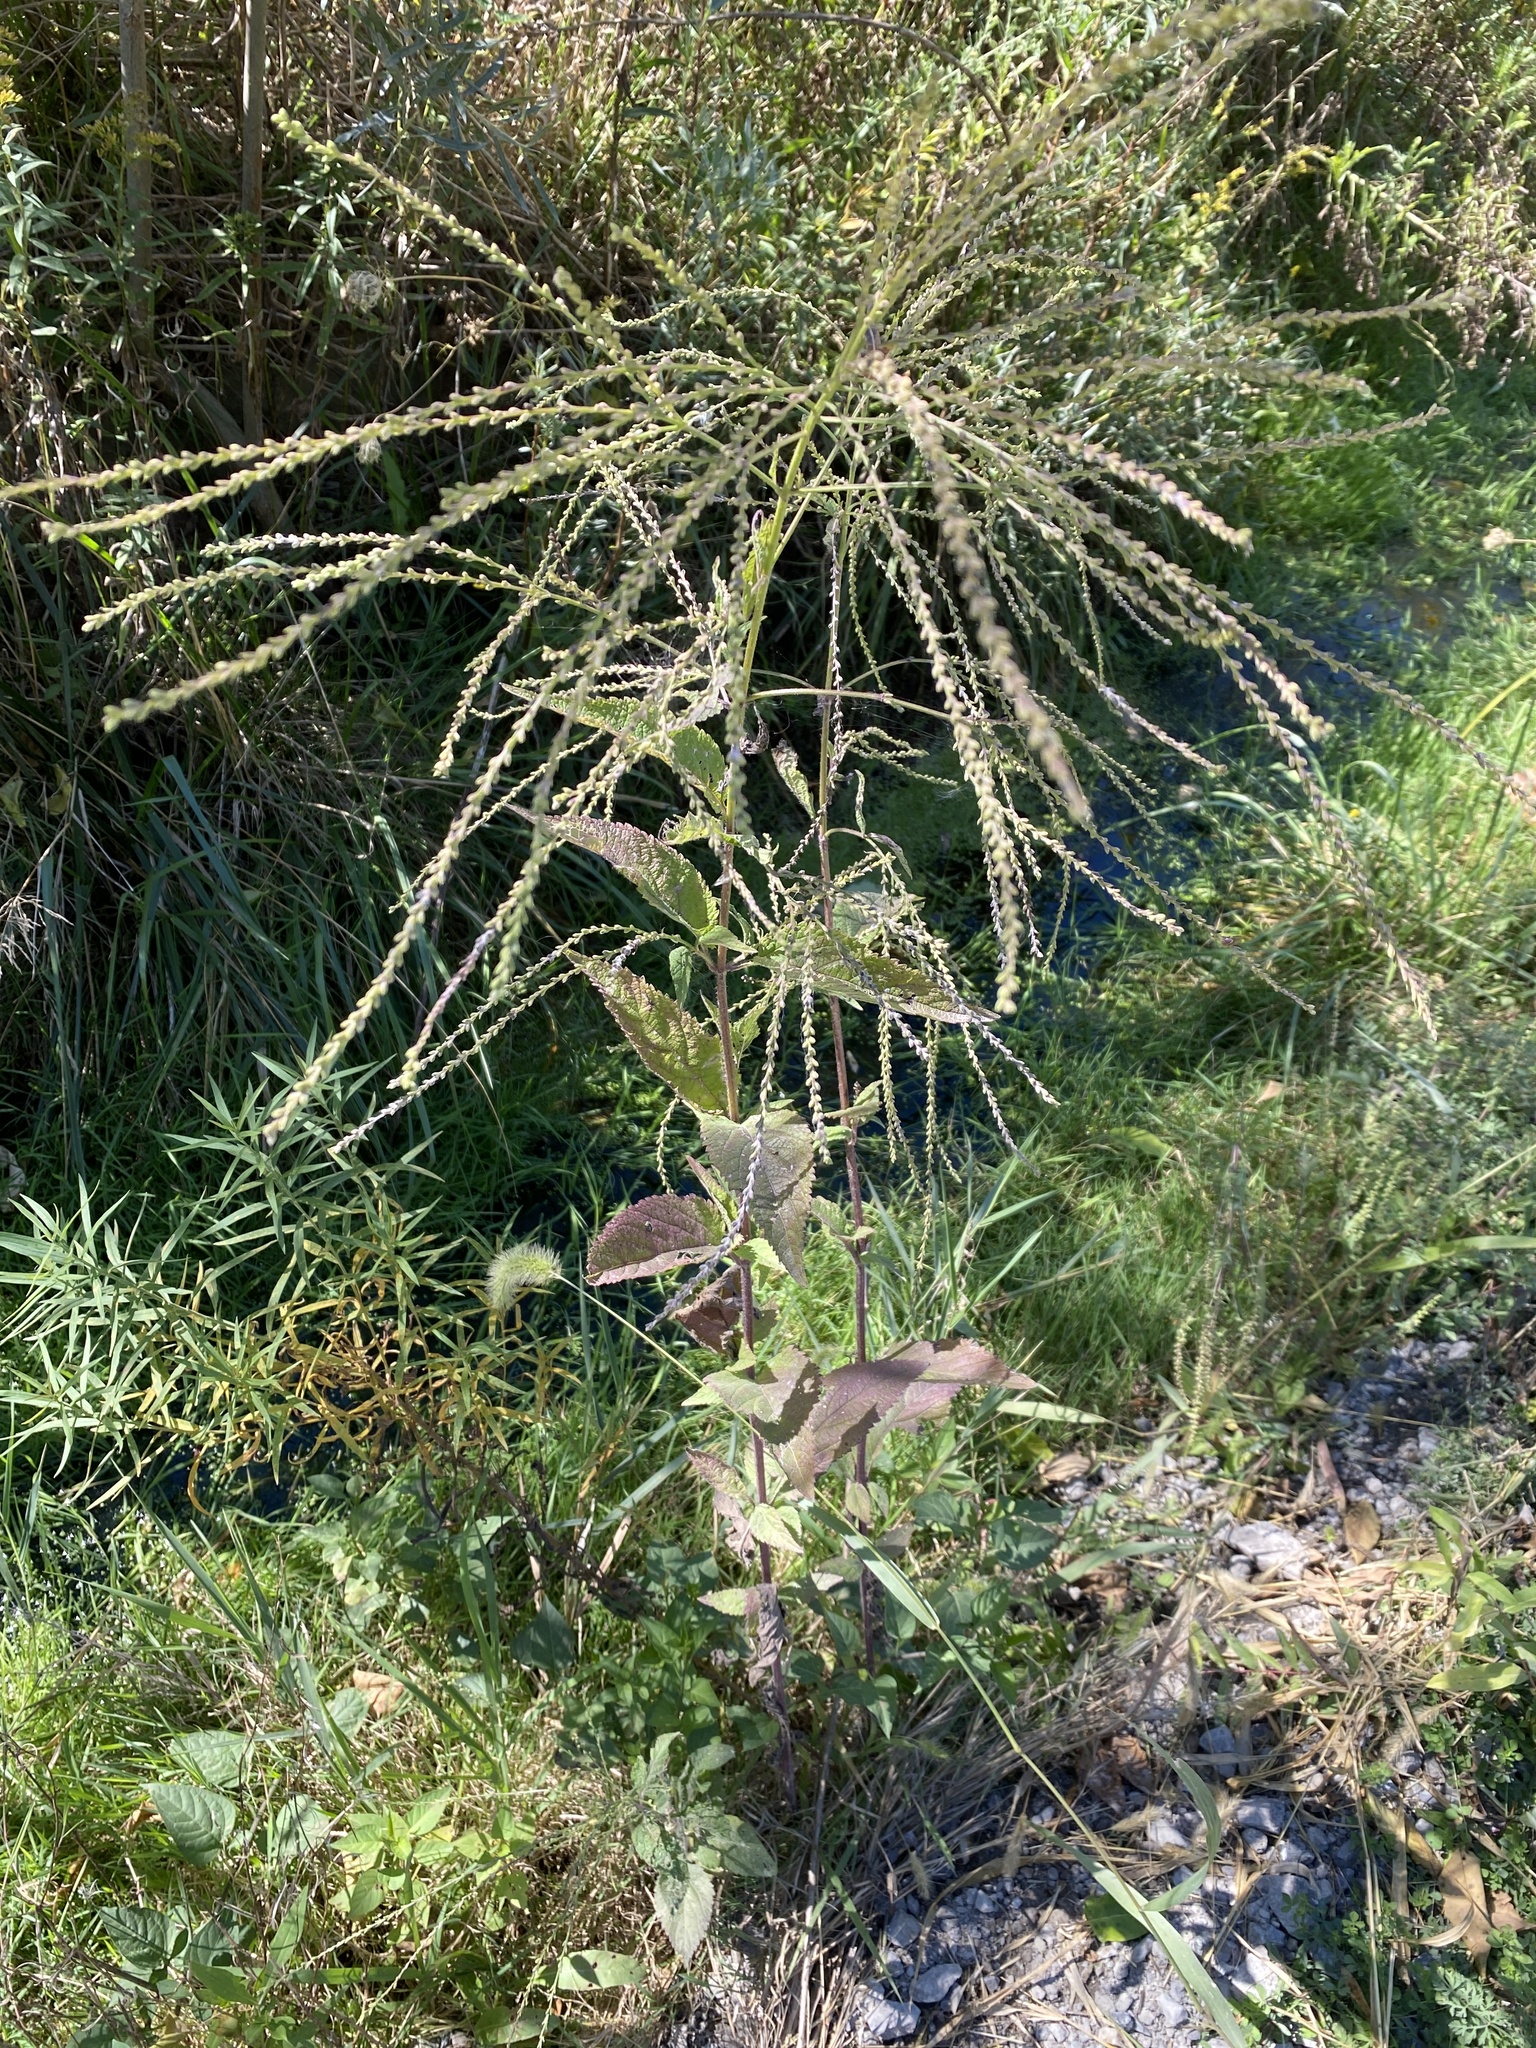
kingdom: Plantae
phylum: Tracheophyta
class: Magnoliopsida
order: Lamiales
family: Verbenaceae
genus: Verbena
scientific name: Verbena urticifolia
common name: Nettle-leaved vervain
